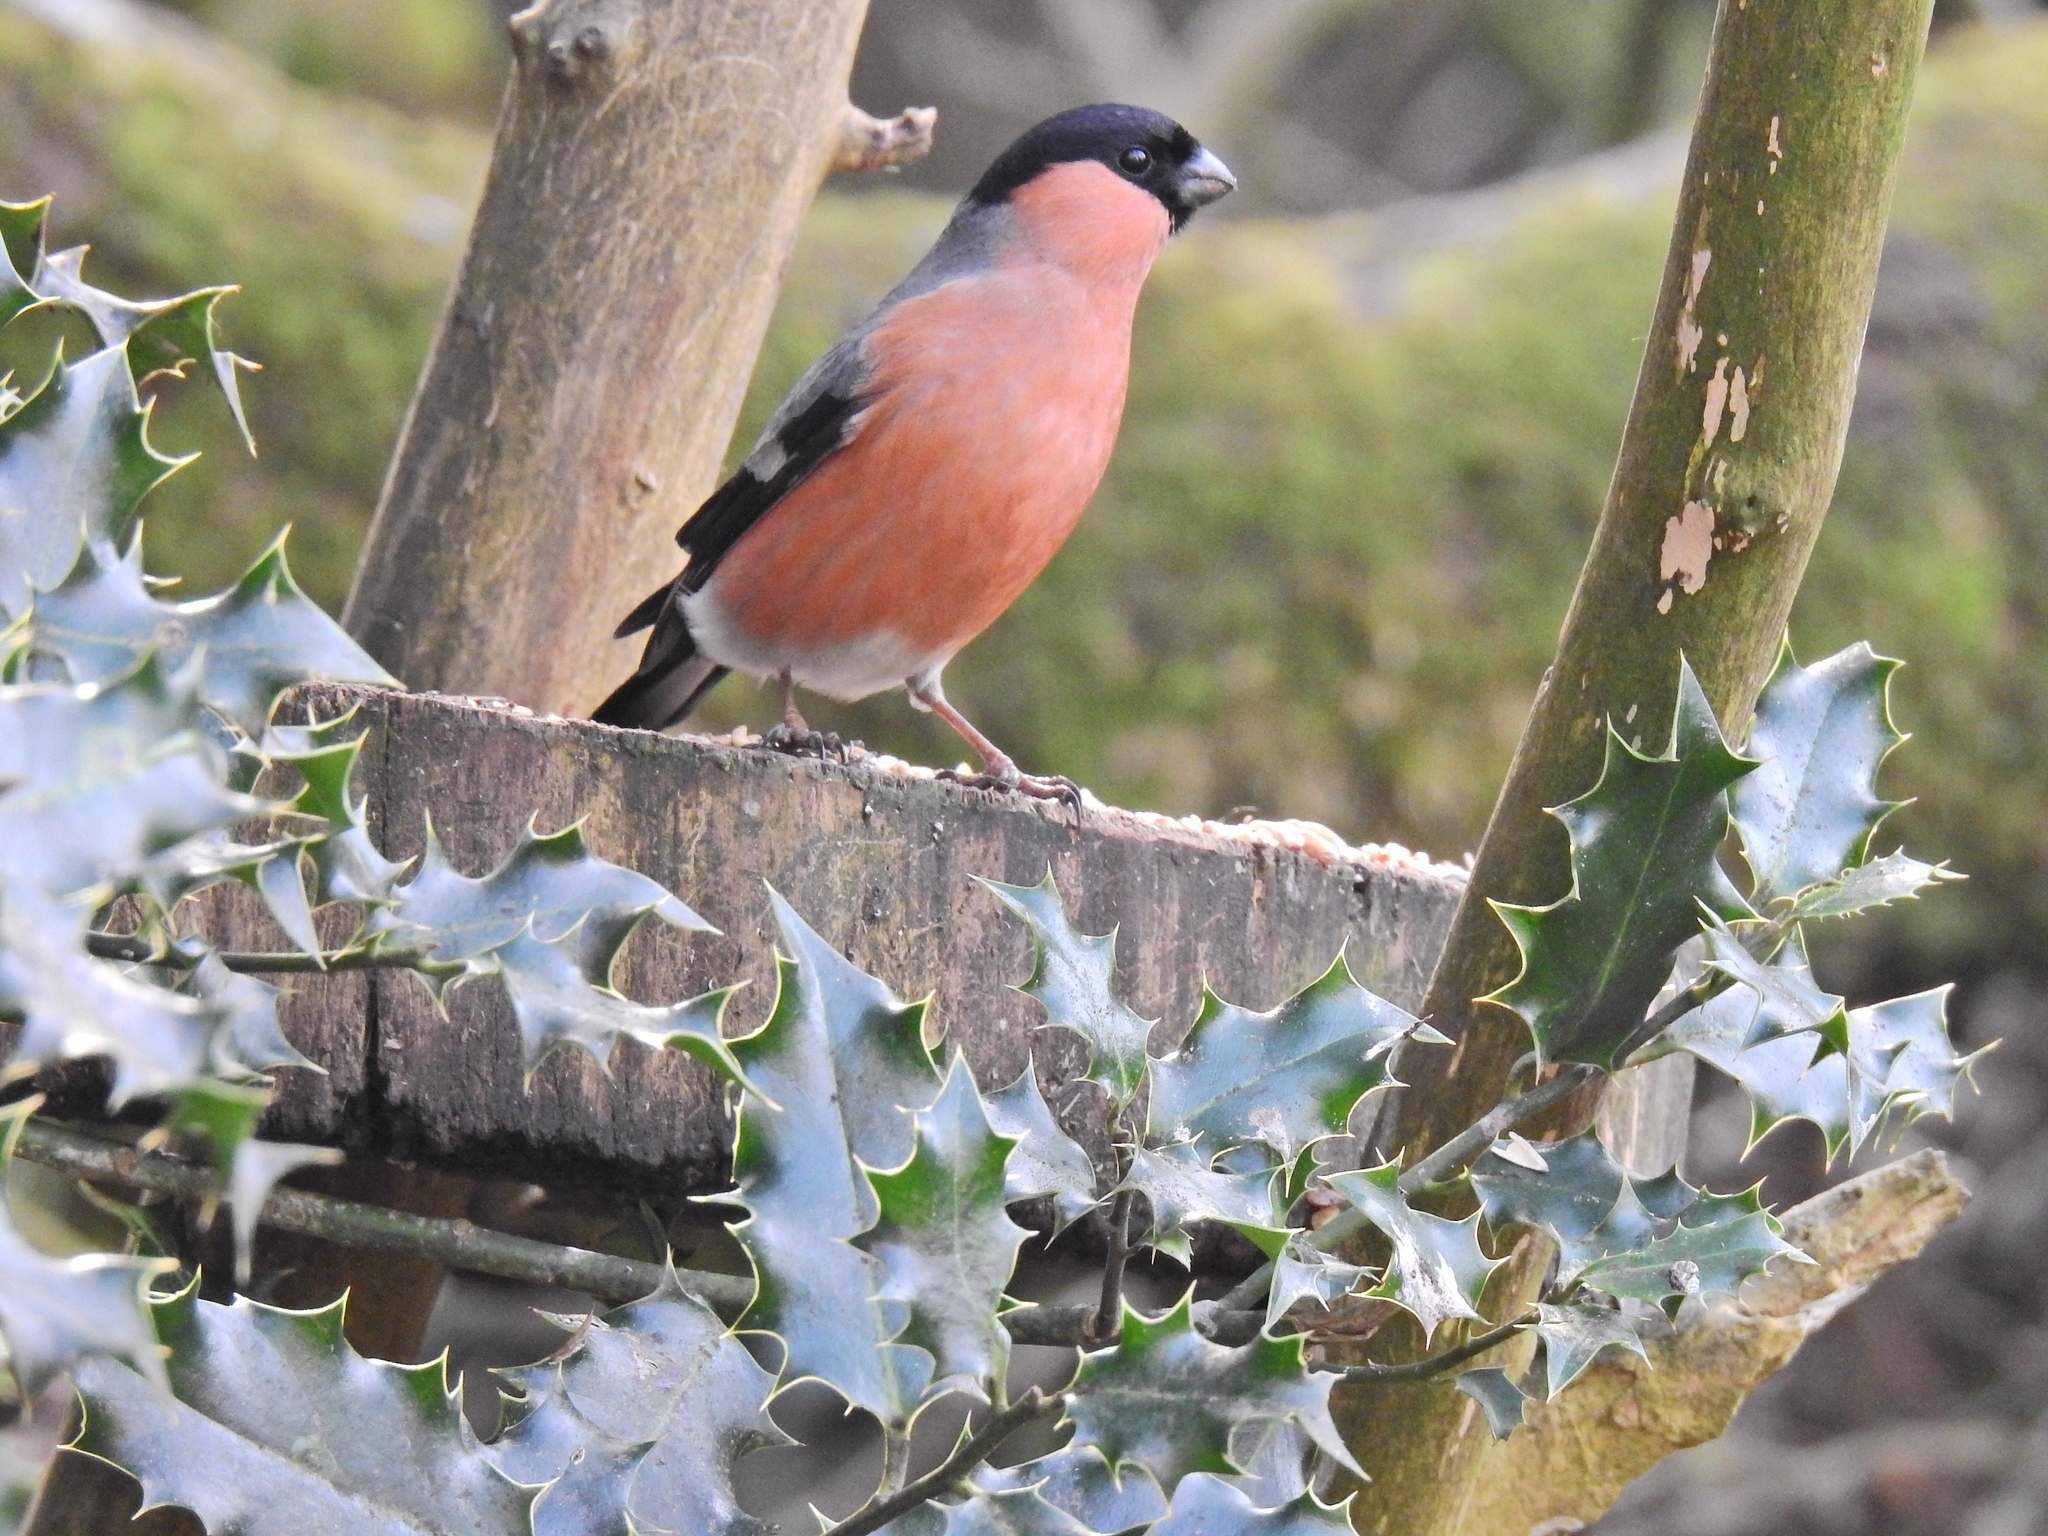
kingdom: Animalia
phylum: Chordata
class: Aves
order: Passeriformes
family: Fringillidae
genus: Pyrrhula
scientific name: Pyrrhula pyrrhula
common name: Eurasian bullfinch
